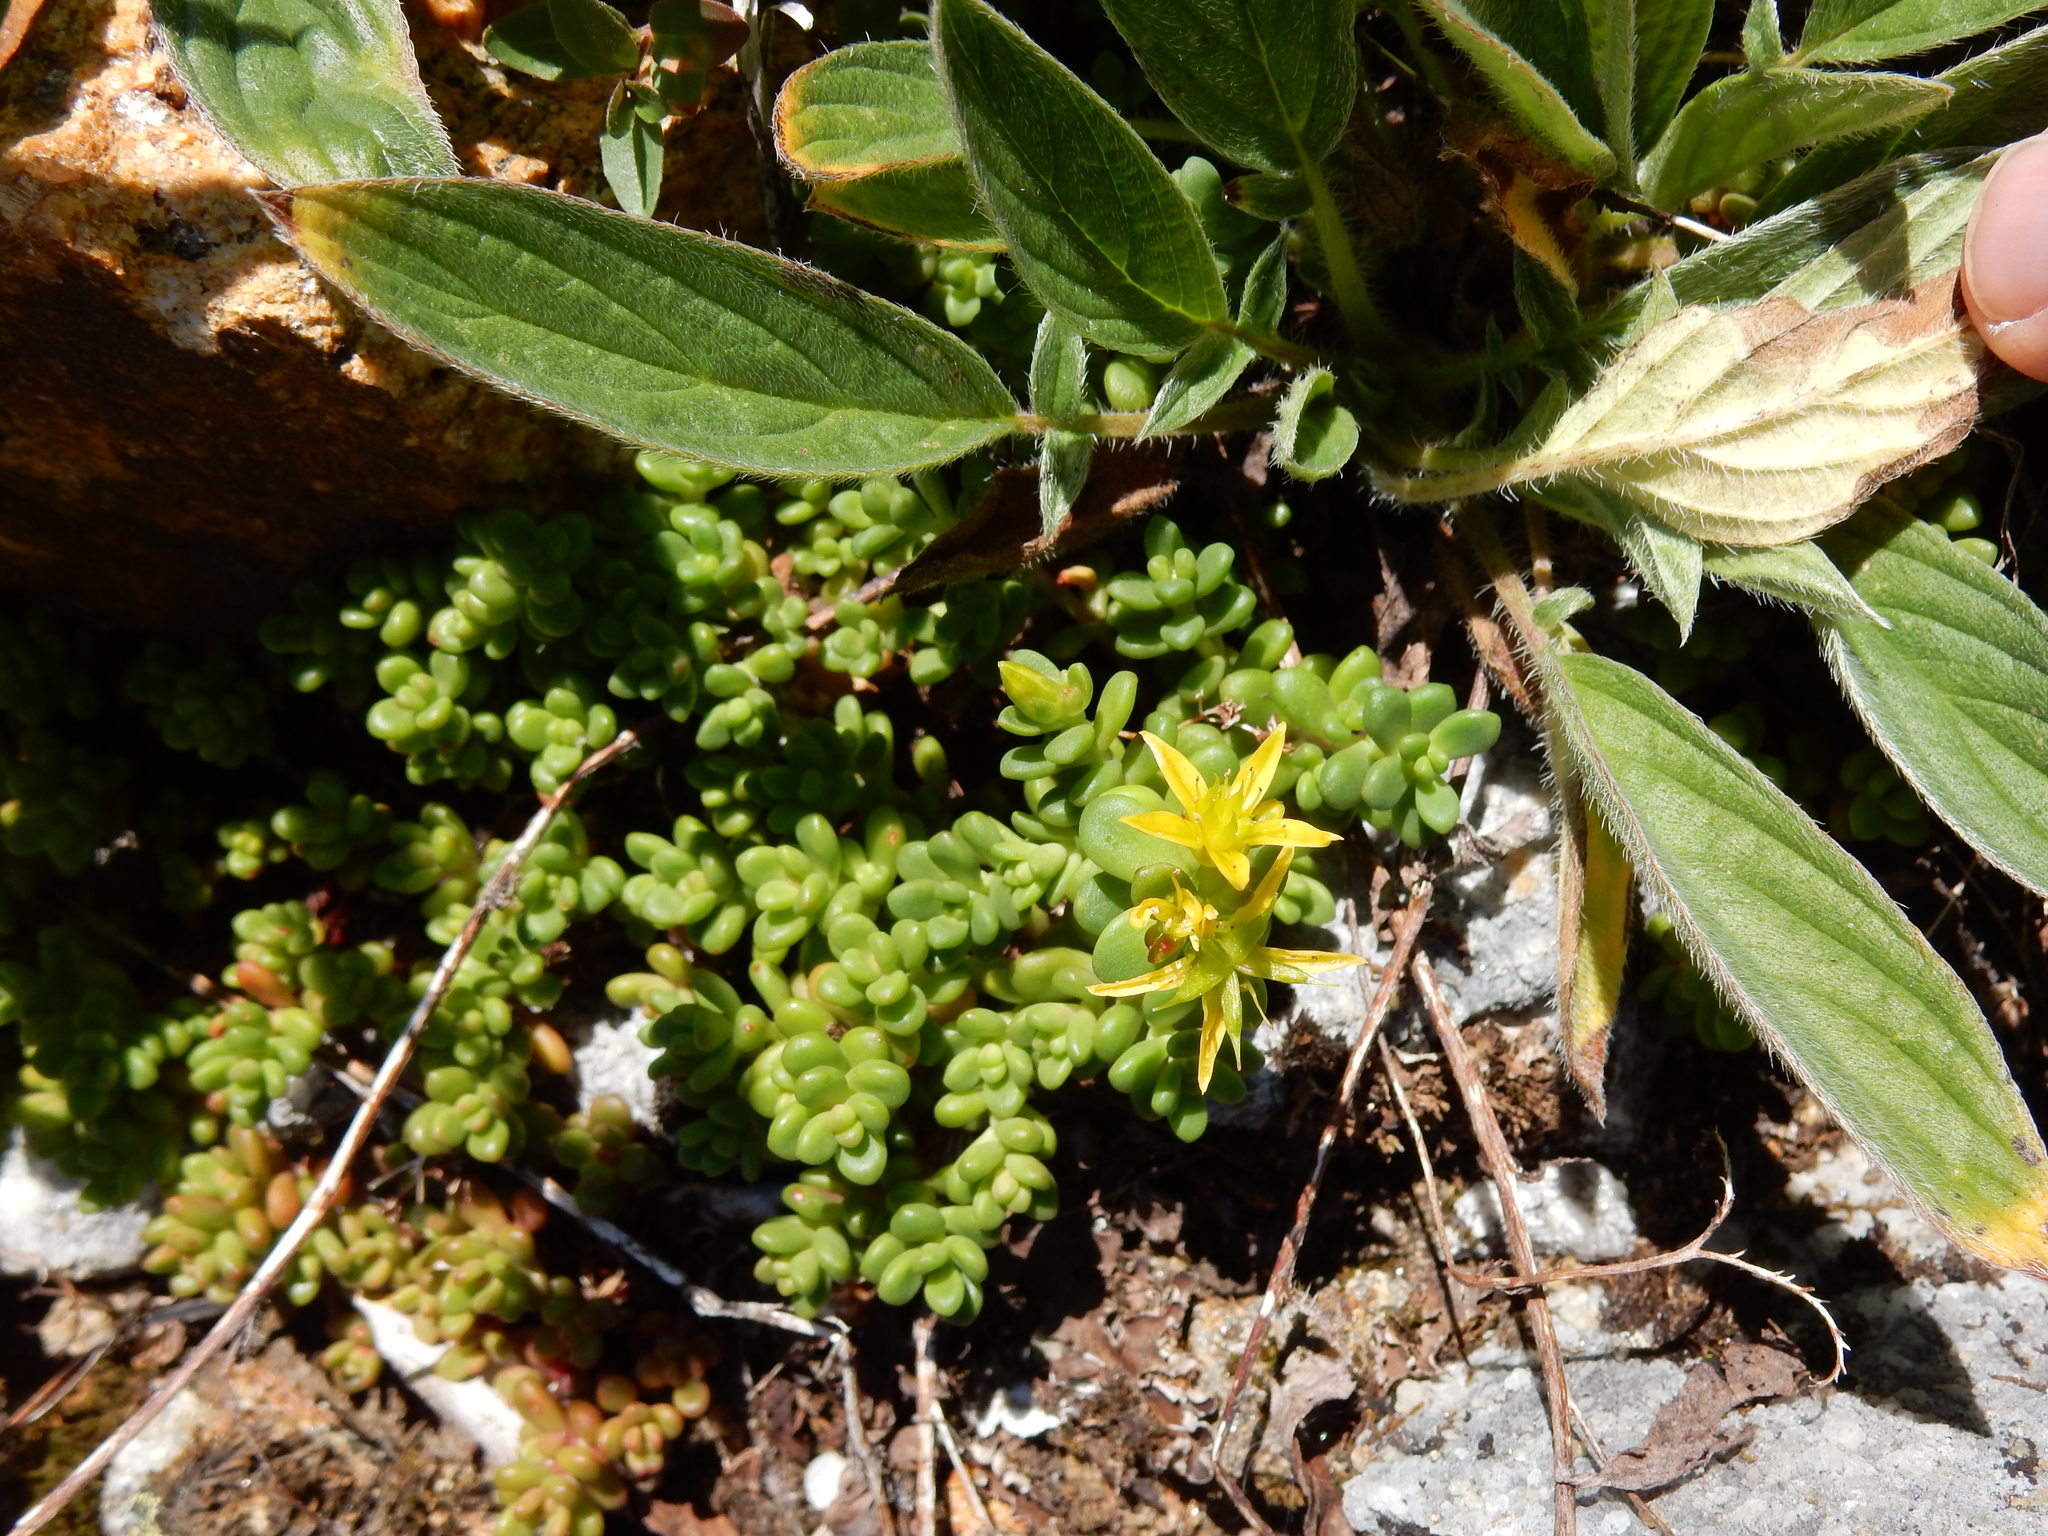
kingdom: Plantae
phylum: Tracheophyta
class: Magnoliopsida
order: Saxifragales
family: Crassulaceae
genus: Sedum
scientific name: Sedum divergens
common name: Cascade stonecrop
